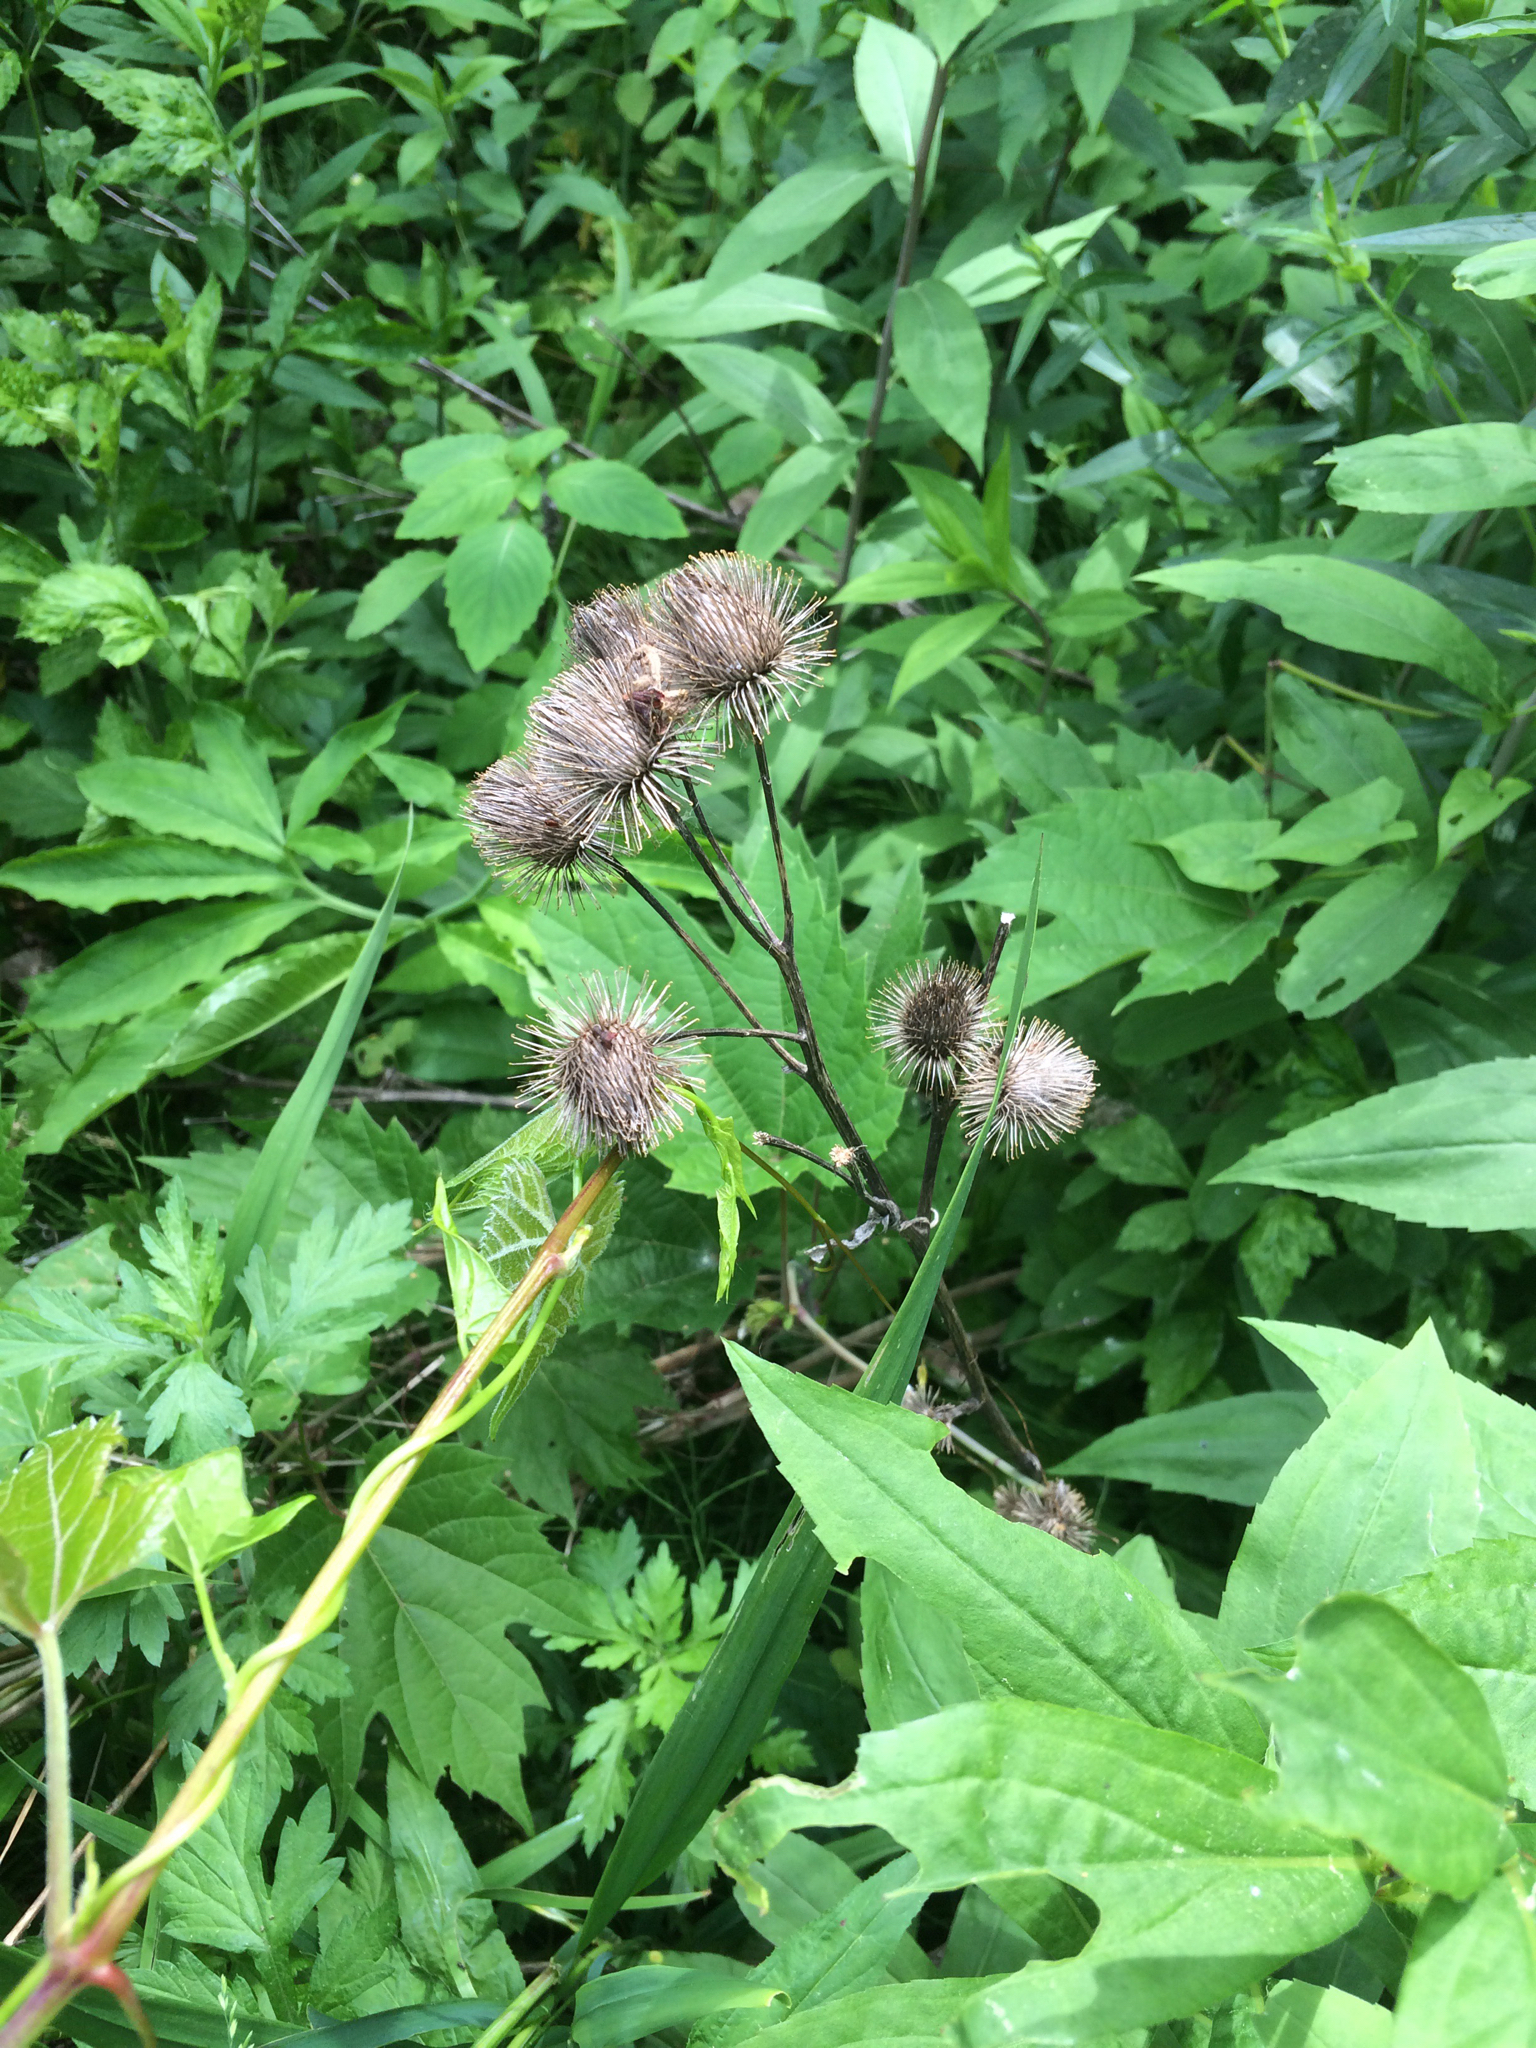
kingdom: Plantae
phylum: Tracheophyta
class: Magnoliopsida
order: Asterales
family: Asteraceae
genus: Arctium
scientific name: Arctium lappa
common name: Greater burdock
